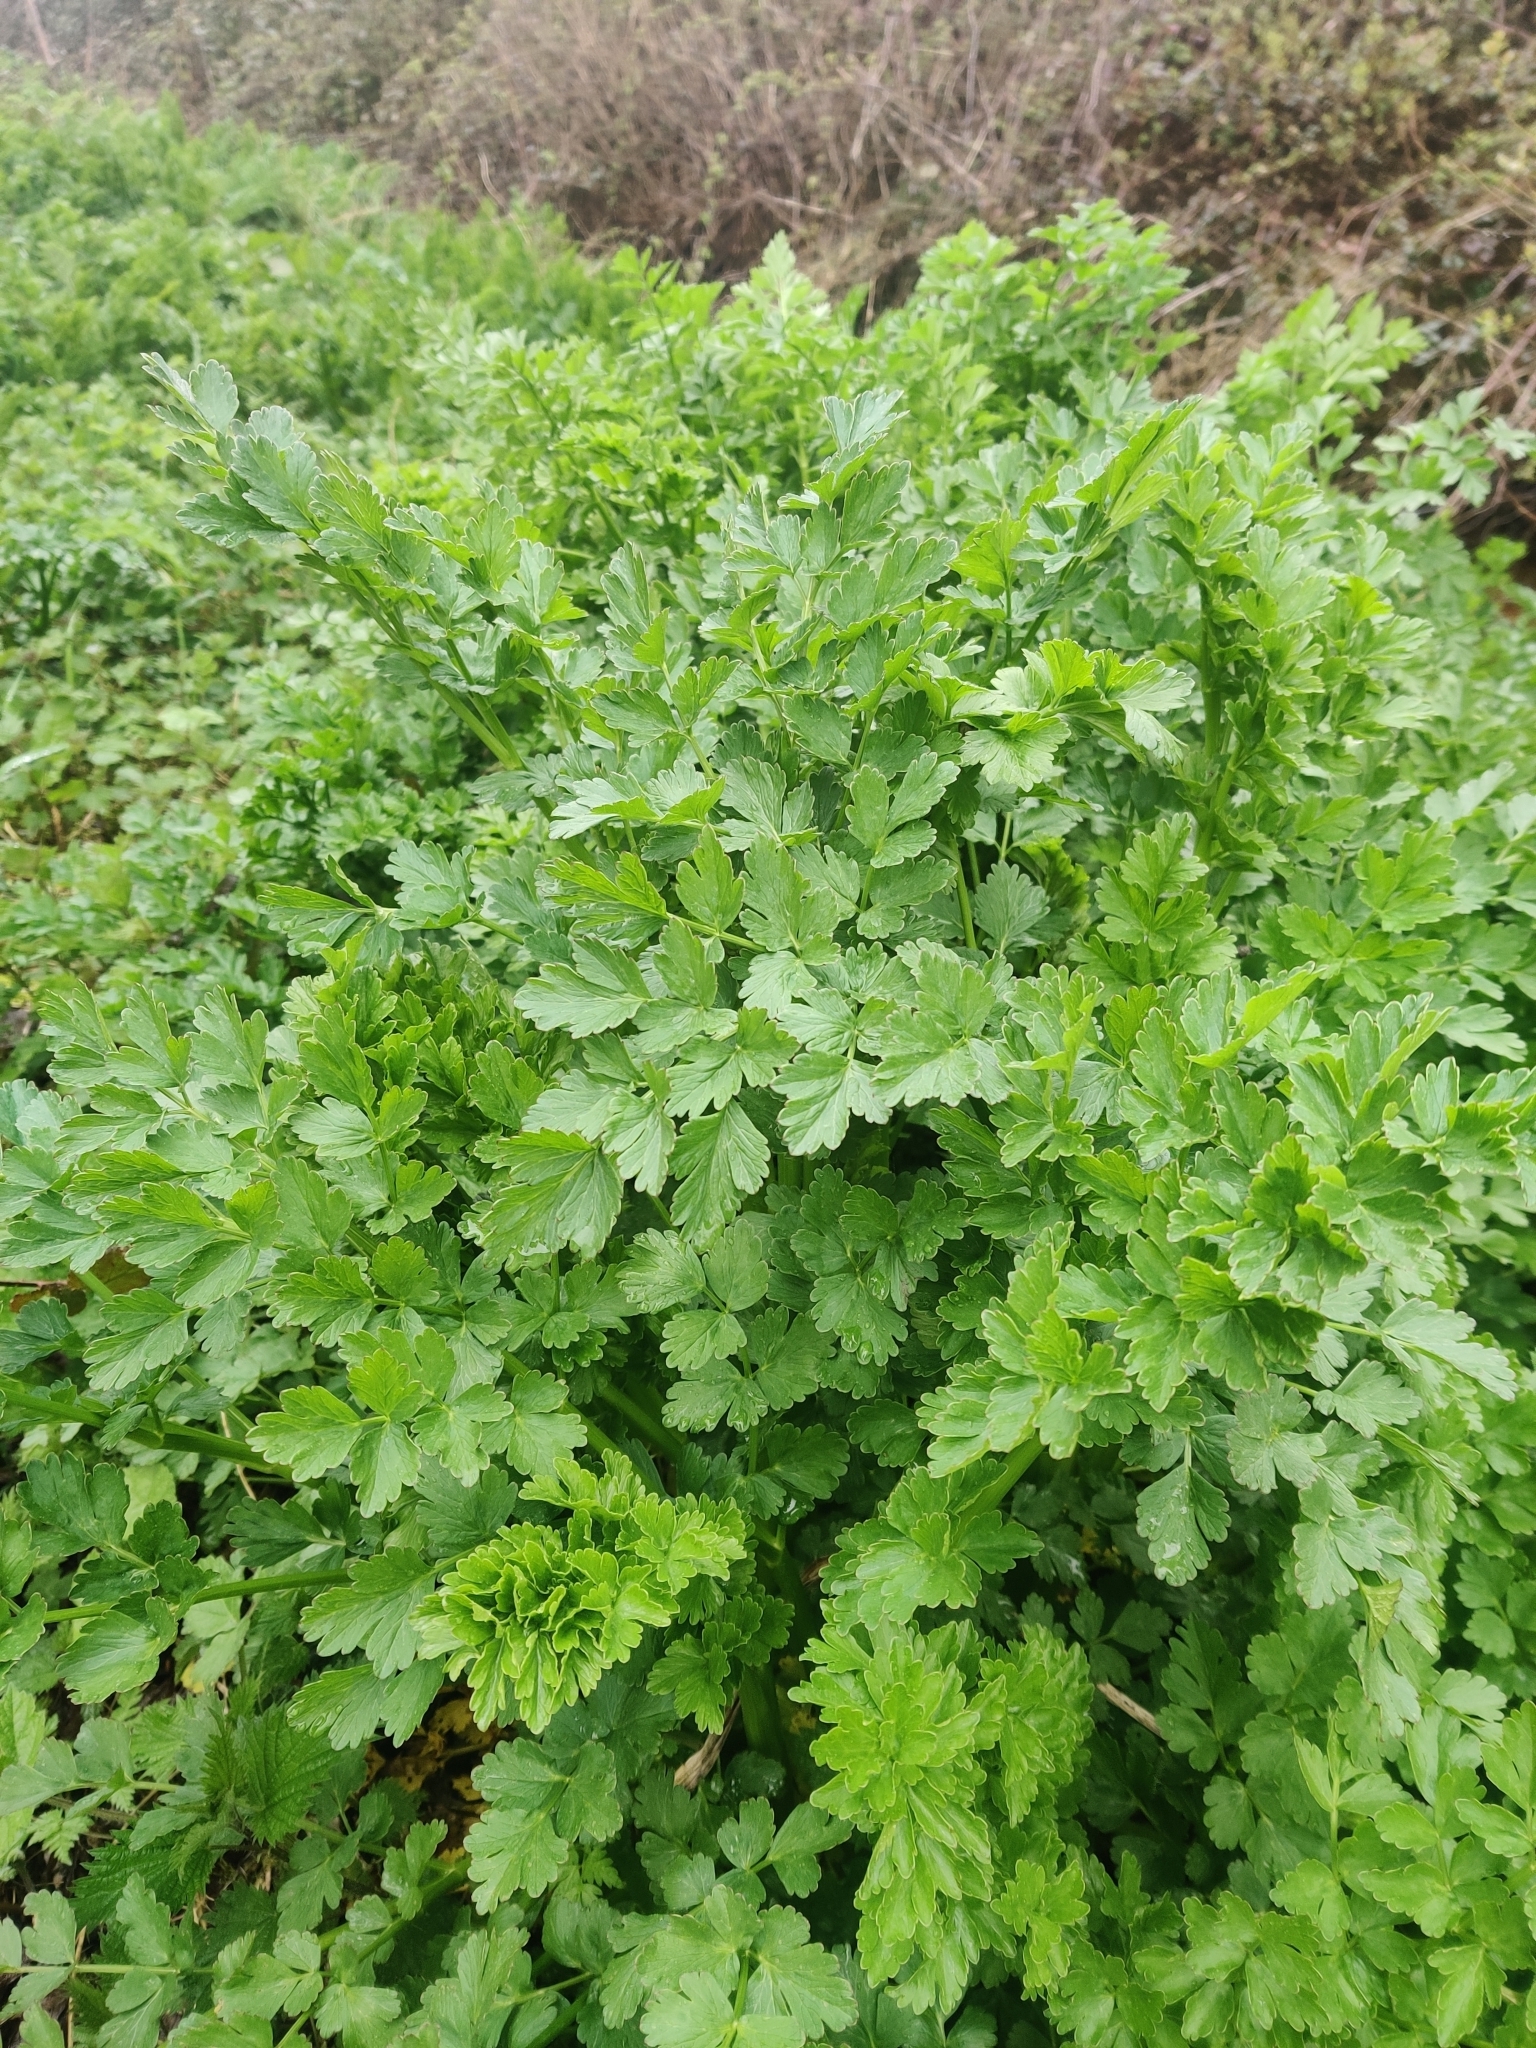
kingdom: Plantae
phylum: Tracheophyta
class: Magnoliopsida
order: Apiales
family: Apiaceae
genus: Oenanthe
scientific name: Oenanthe crocata
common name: Hemlock water-dropwort
